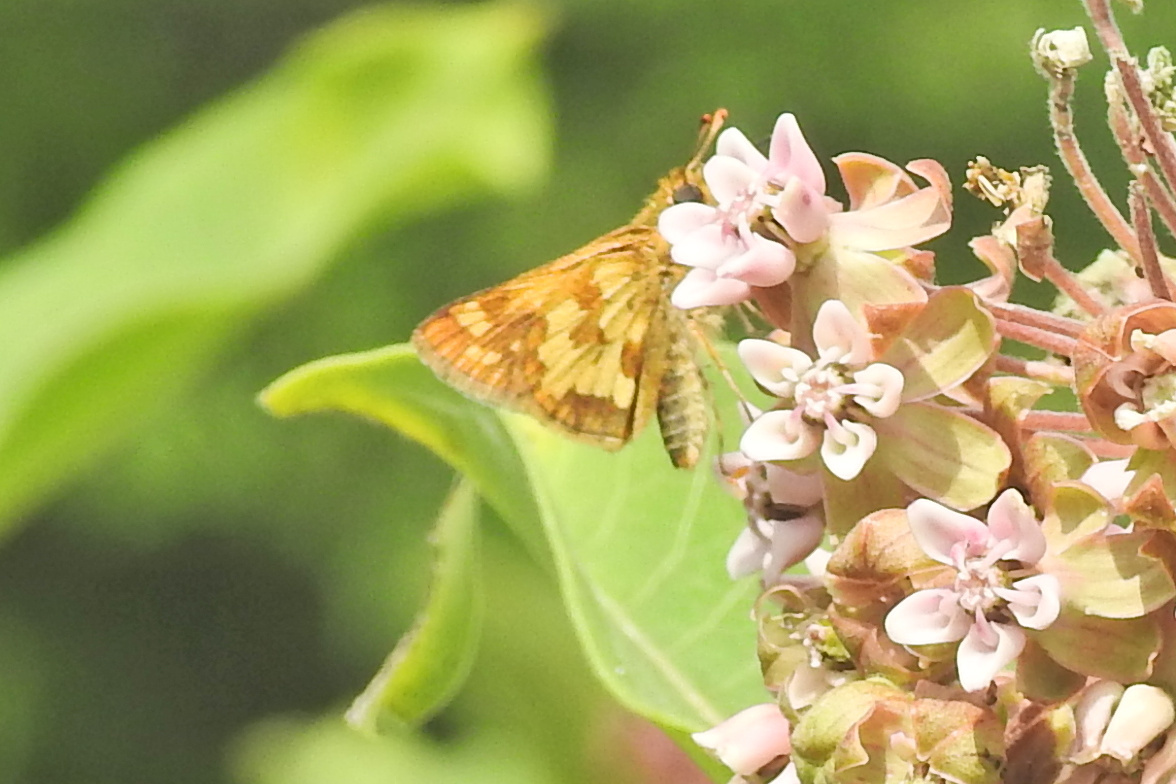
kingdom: Animalia
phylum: Arthropoda
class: Insecta
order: Lepidoptera
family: Hesperiidae
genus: Polites
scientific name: Polites coras
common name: Peck's skipper
